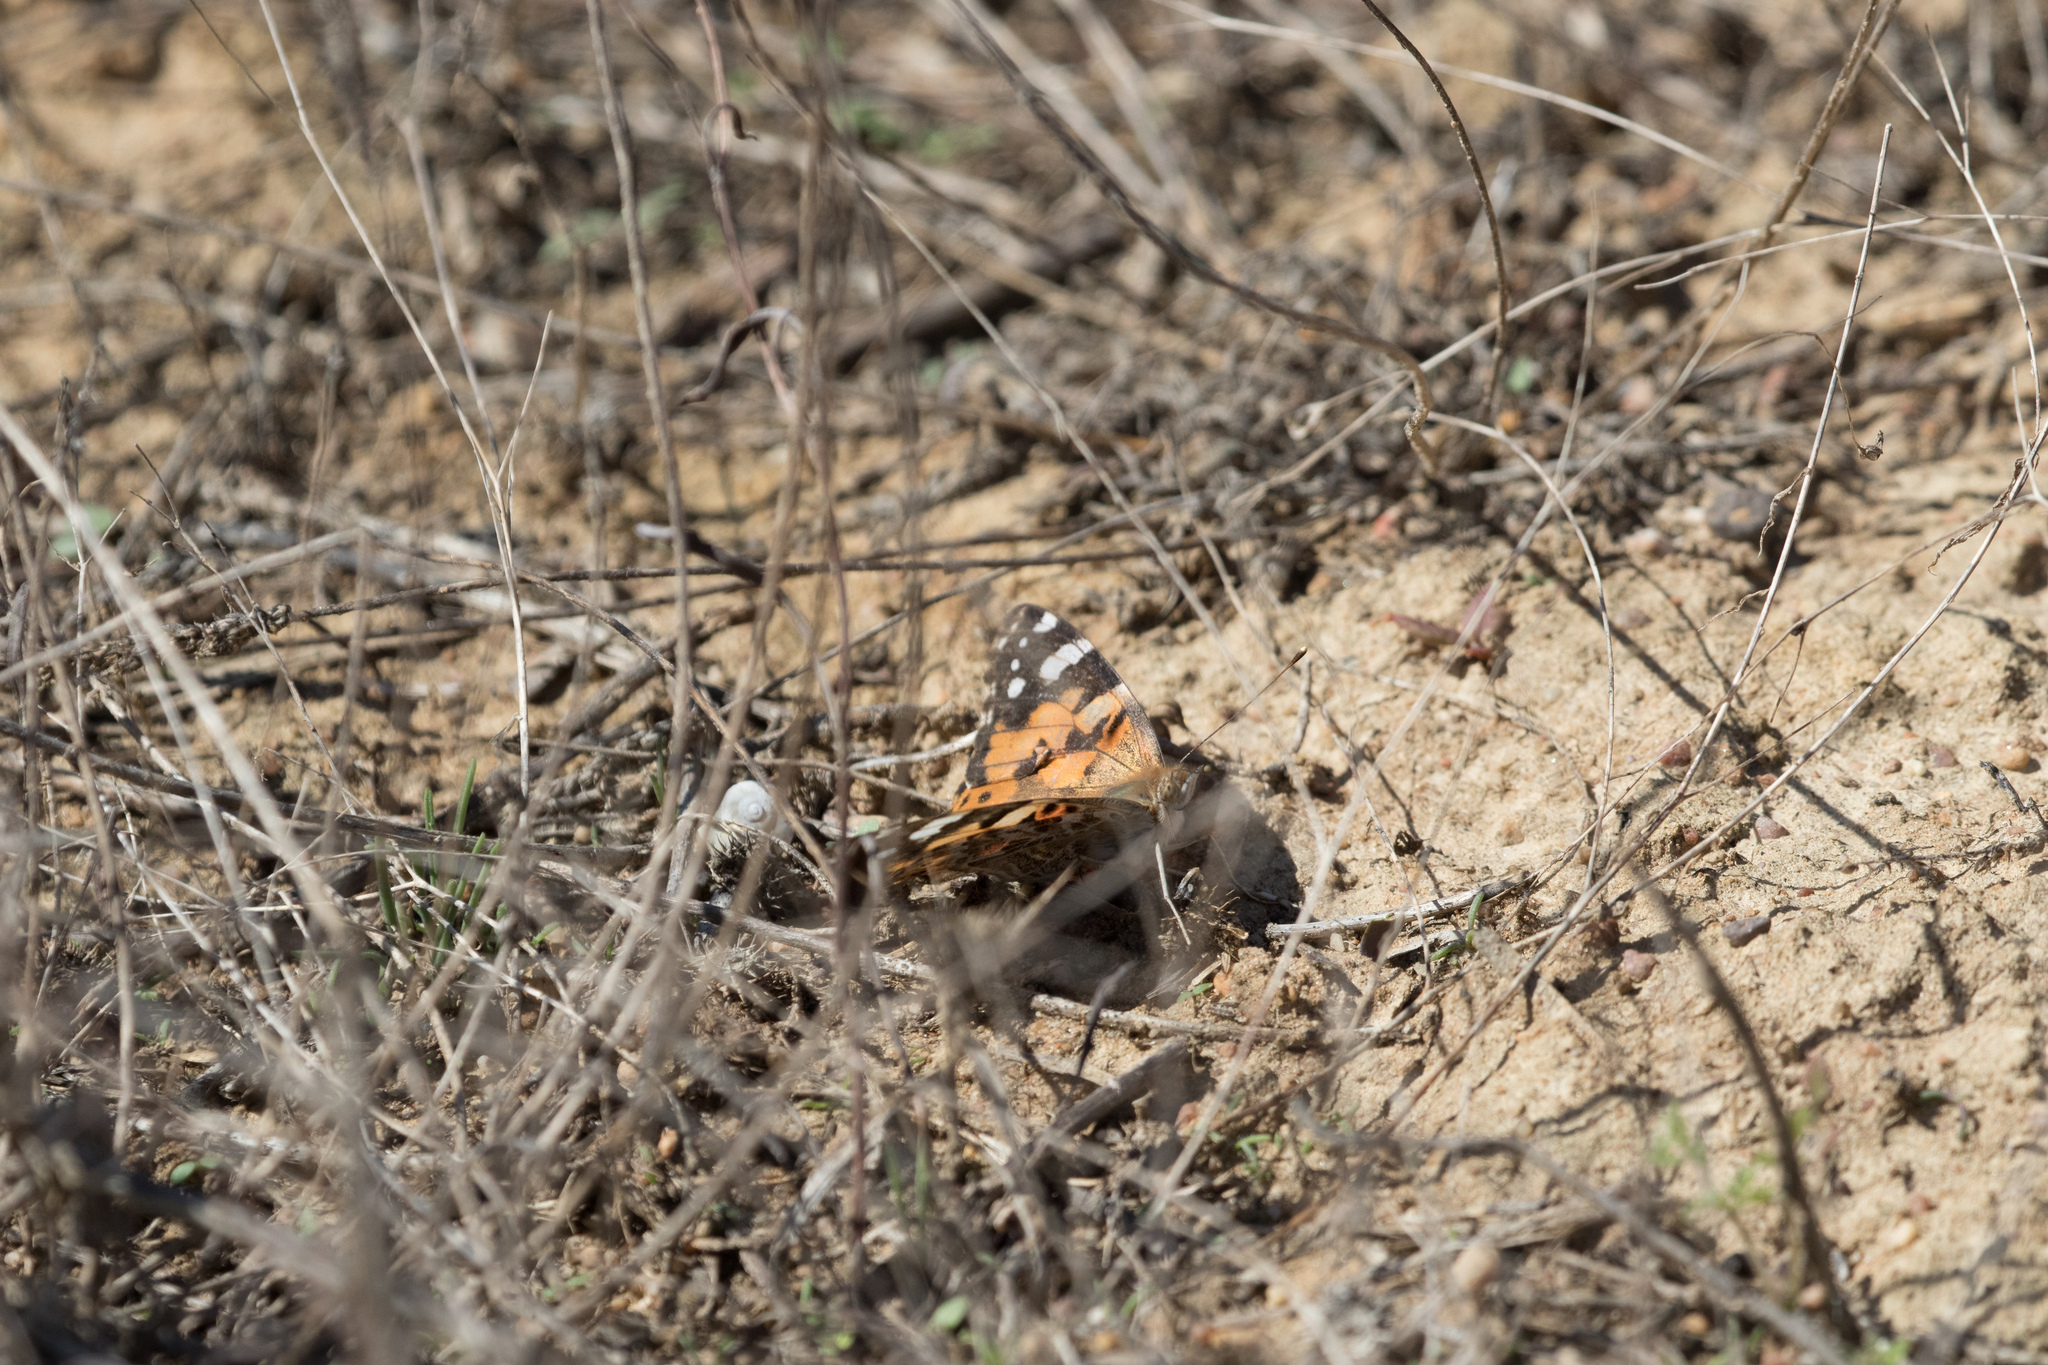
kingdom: Animalia
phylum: Arthropoda
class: Insecta
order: Lepidoptera
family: Nymphalidae
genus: Vanessa
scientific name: Vanessa cardui
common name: Painted lady
